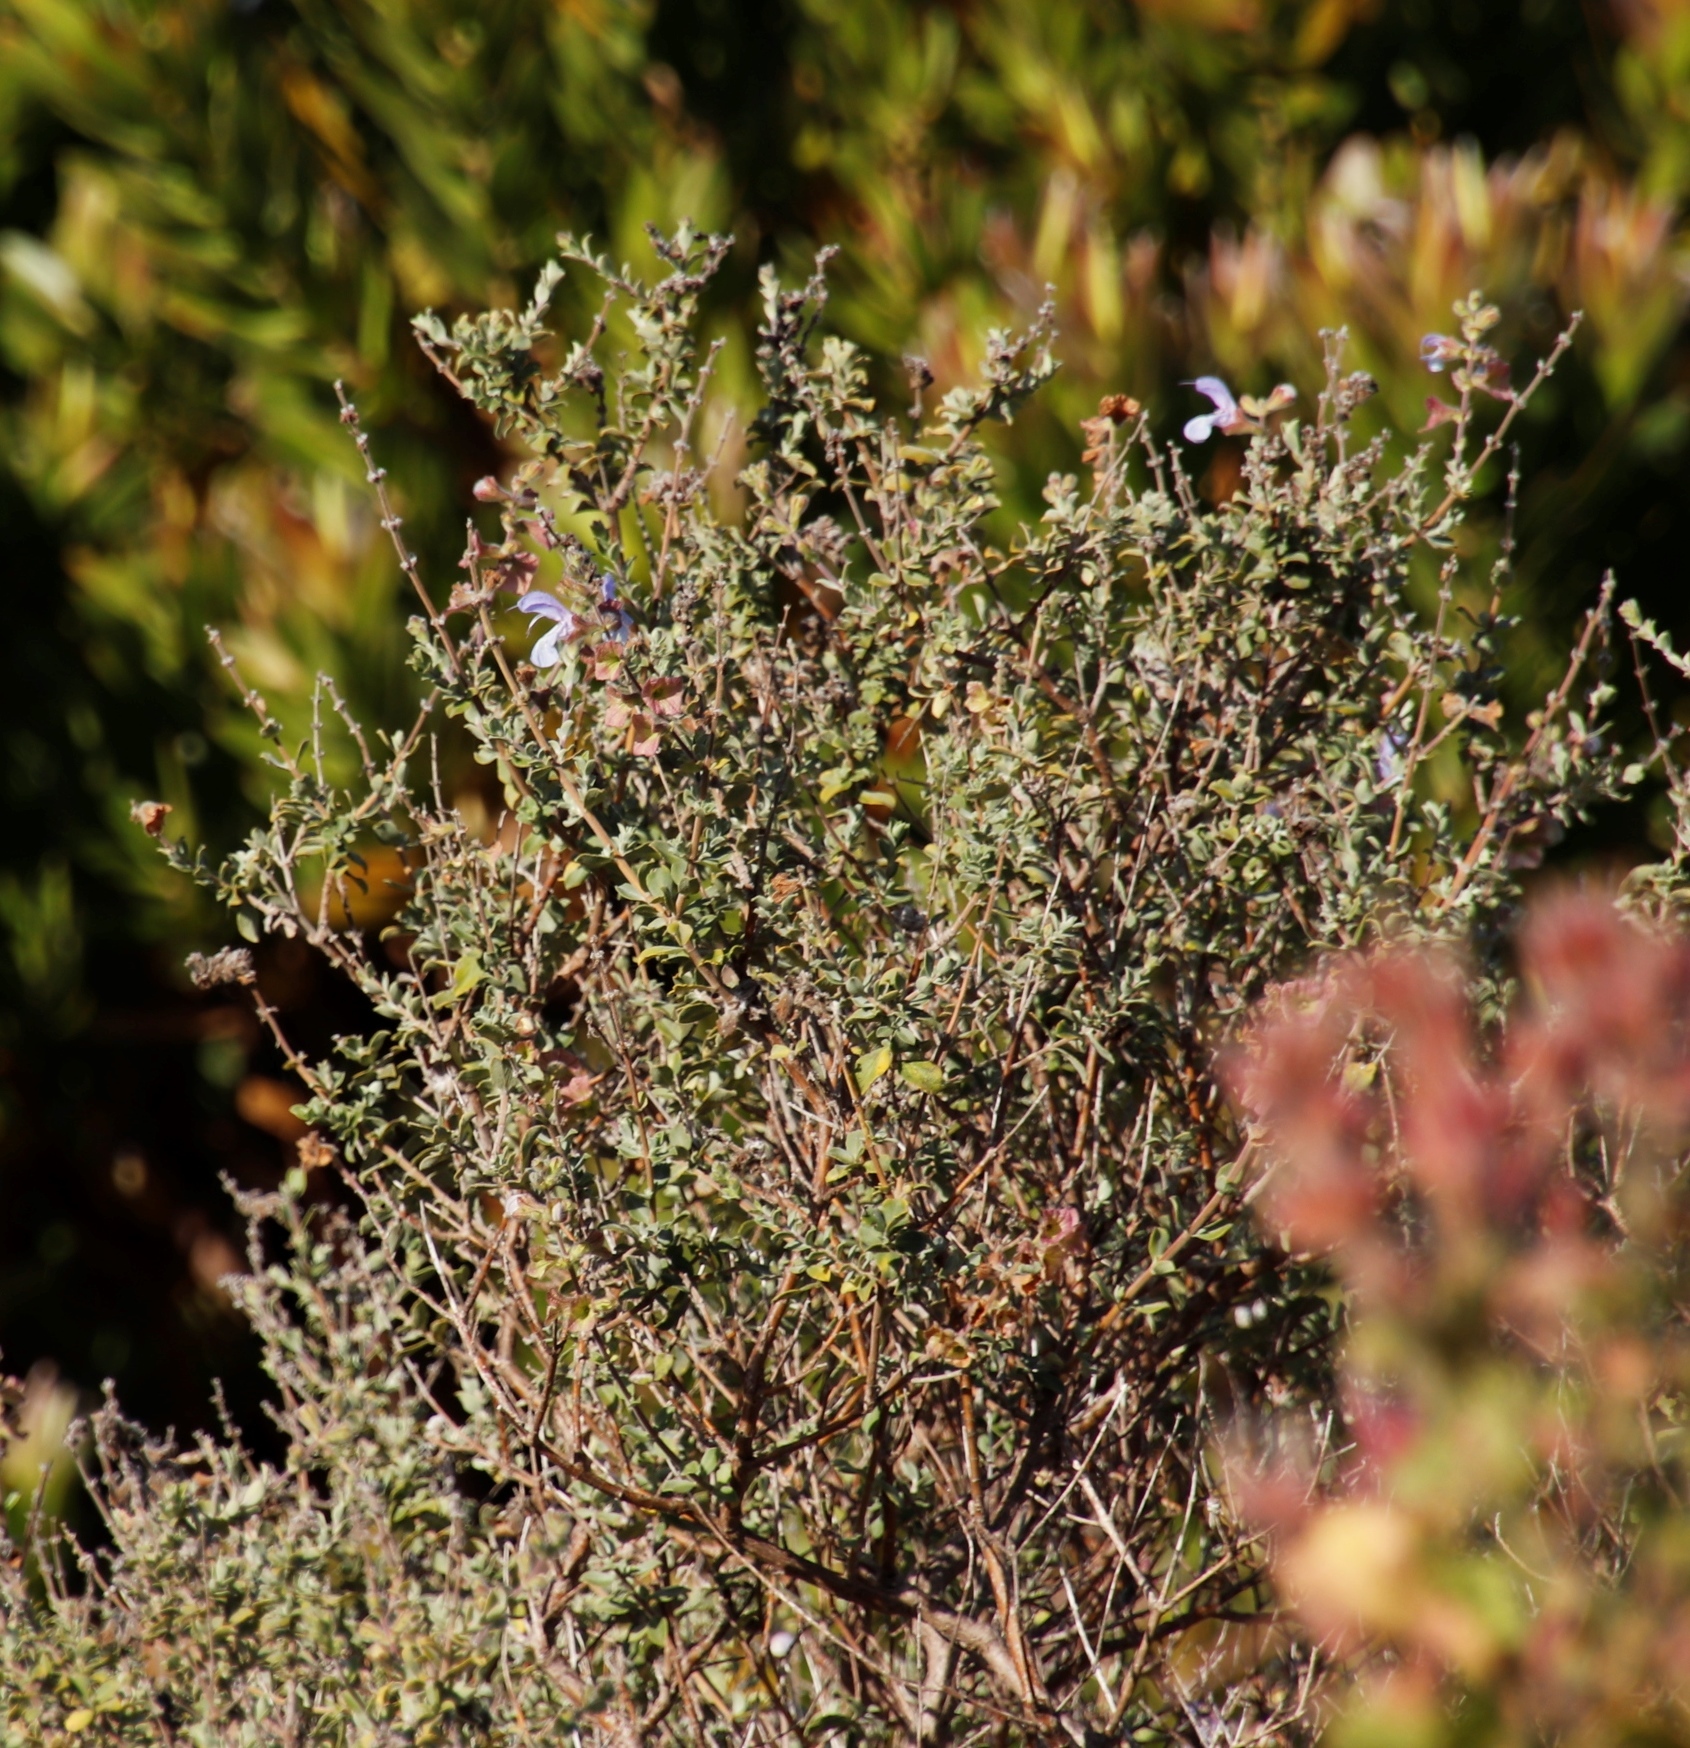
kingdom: Plantae
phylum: Tracheophyta
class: Magnoliopsida
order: Lamiales
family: Lamiaceae
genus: Salvia
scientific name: Salvia africana
